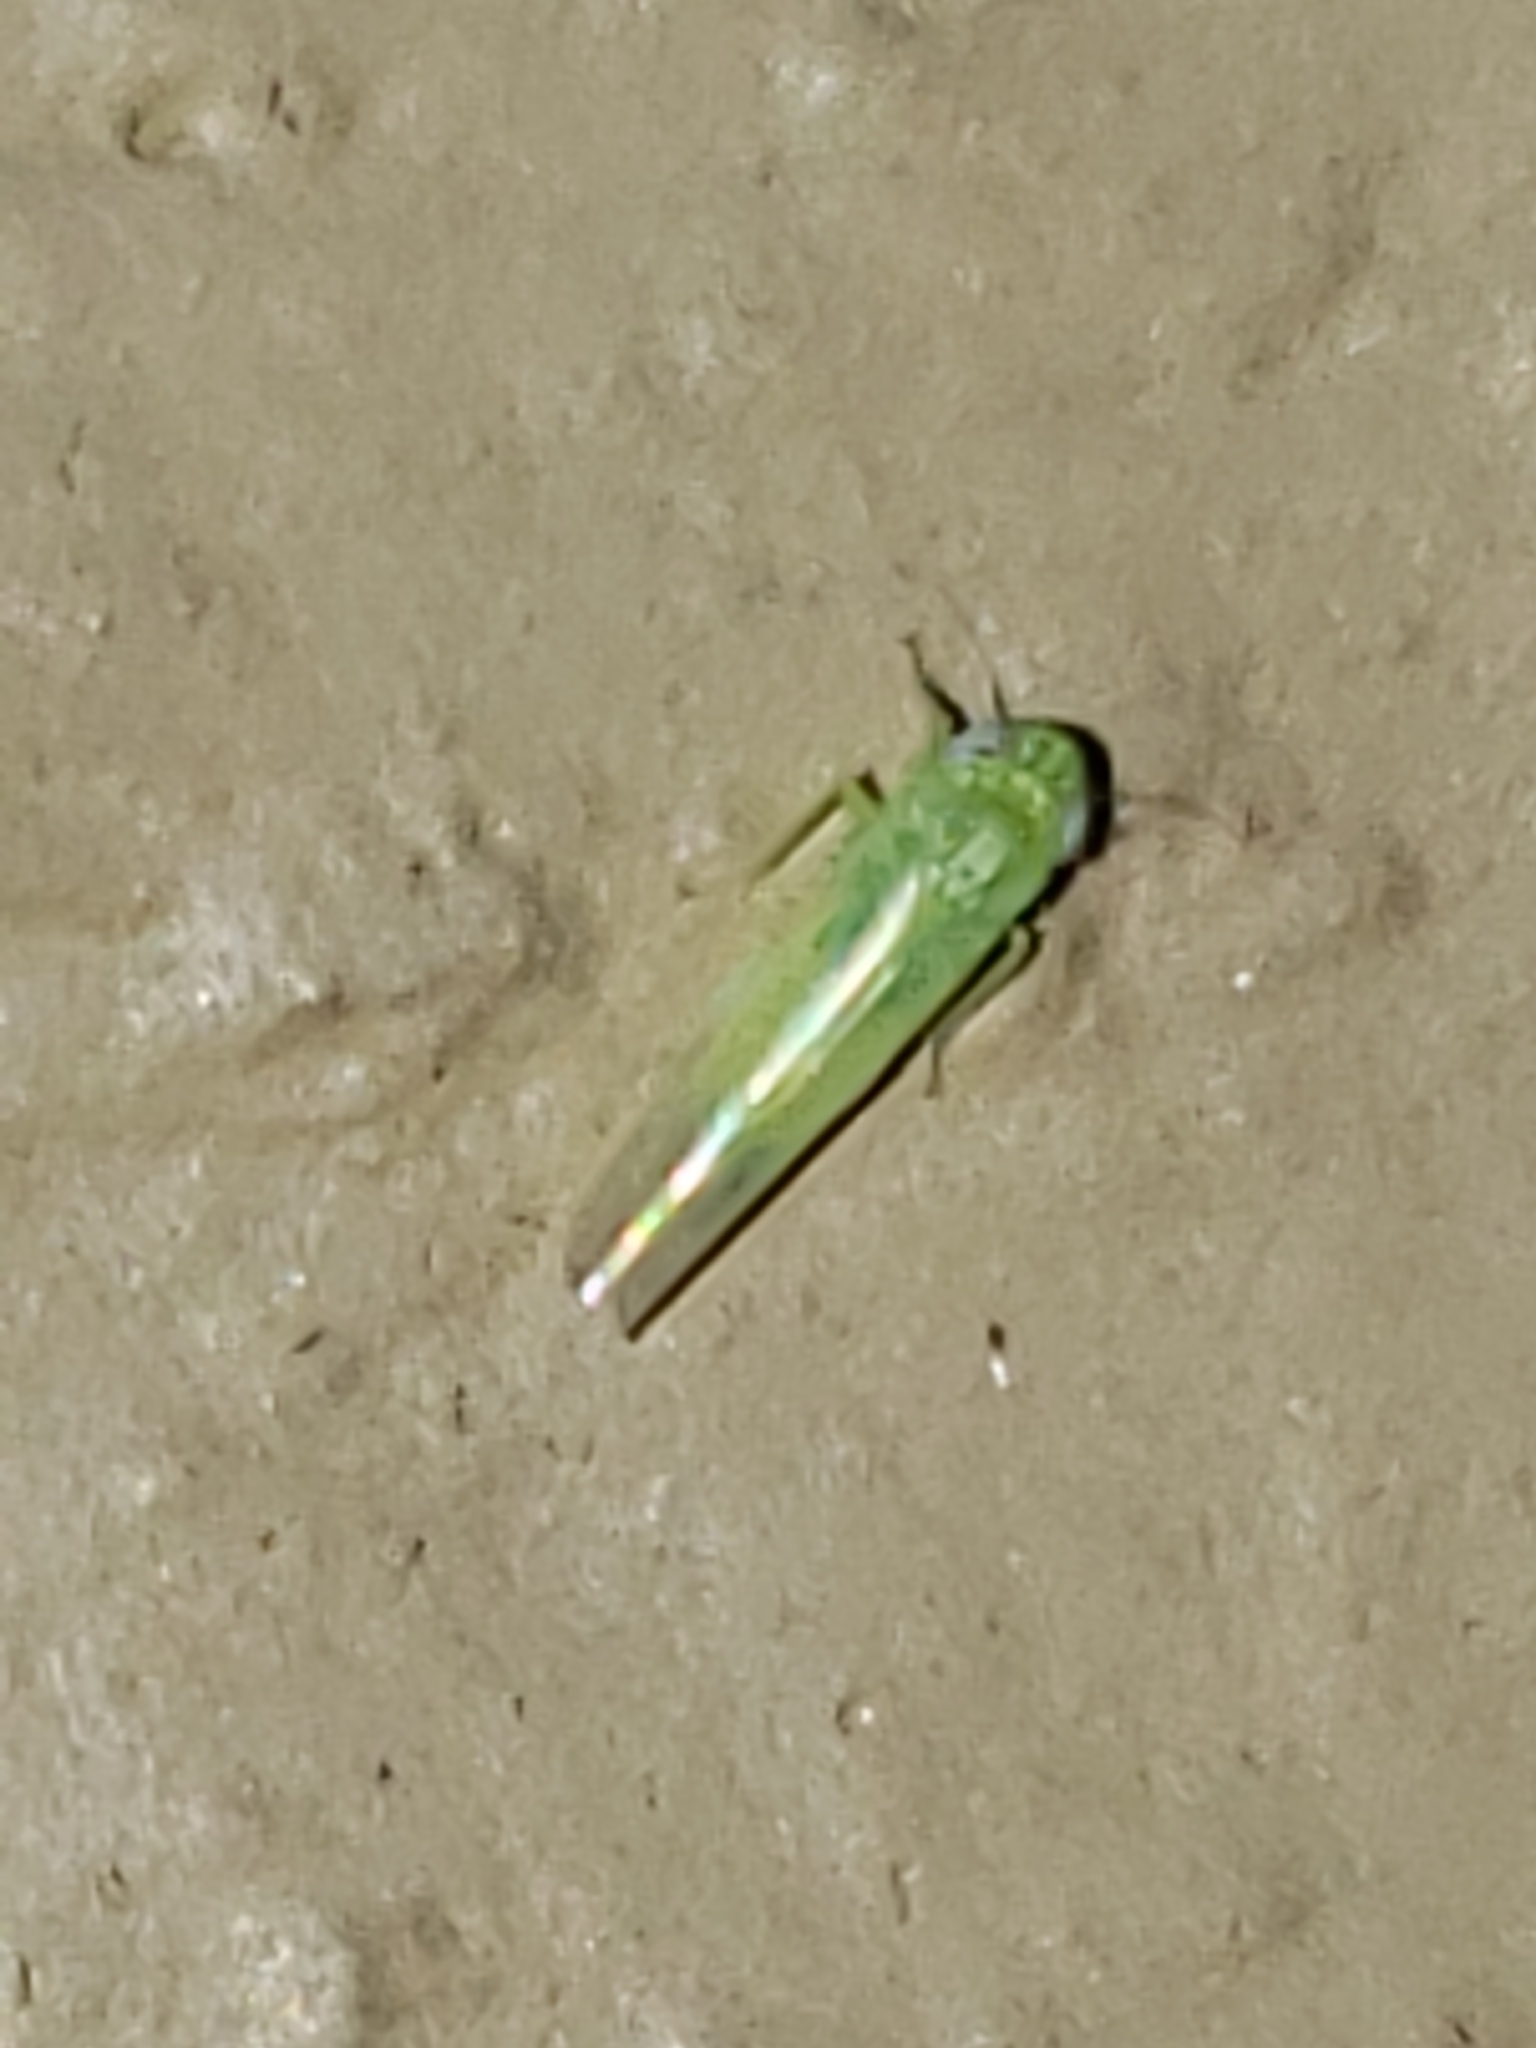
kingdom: Animalia
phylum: Arthropoda
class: Insecta
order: Hemiptera
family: Cicadellidae
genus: Empoasca
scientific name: Empoasca fabae
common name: Potato leafhopper
